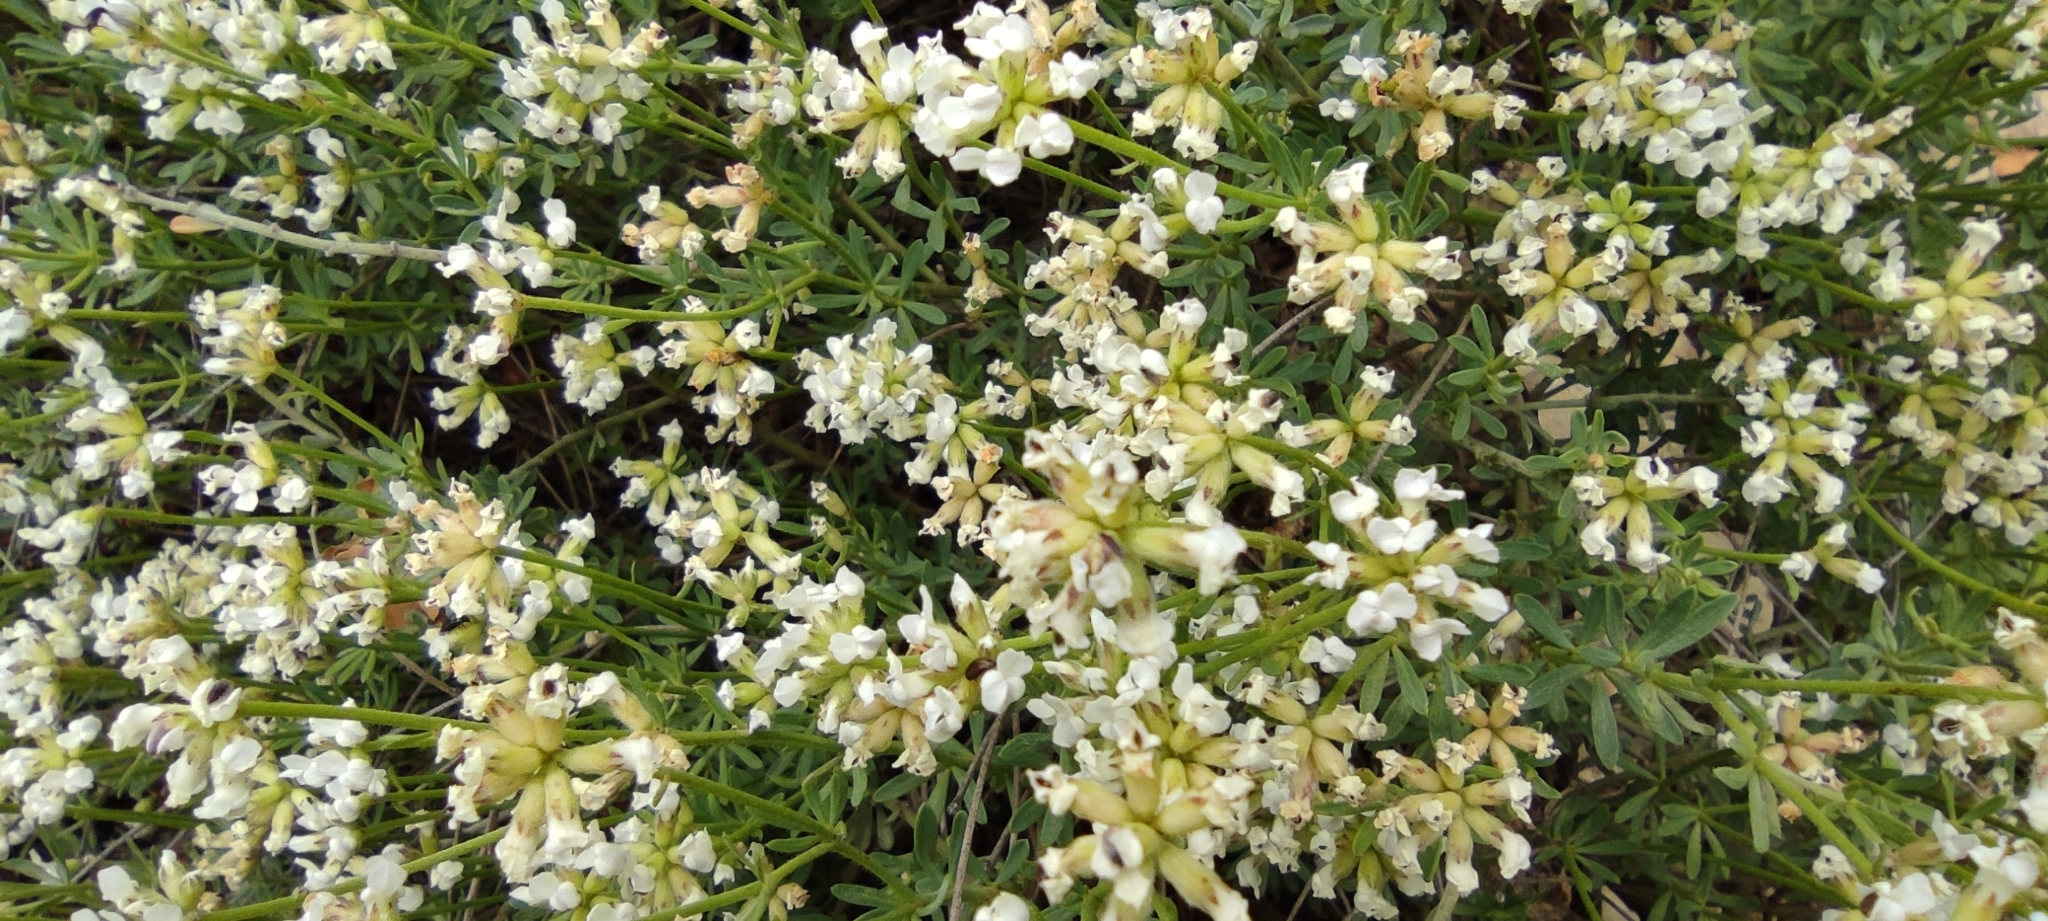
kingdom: Plantae
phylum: Tracheophyta
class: Magnoliopsida
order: Fabales
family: Fabaceae
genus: Lotus
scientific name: Lotus dorycnium
